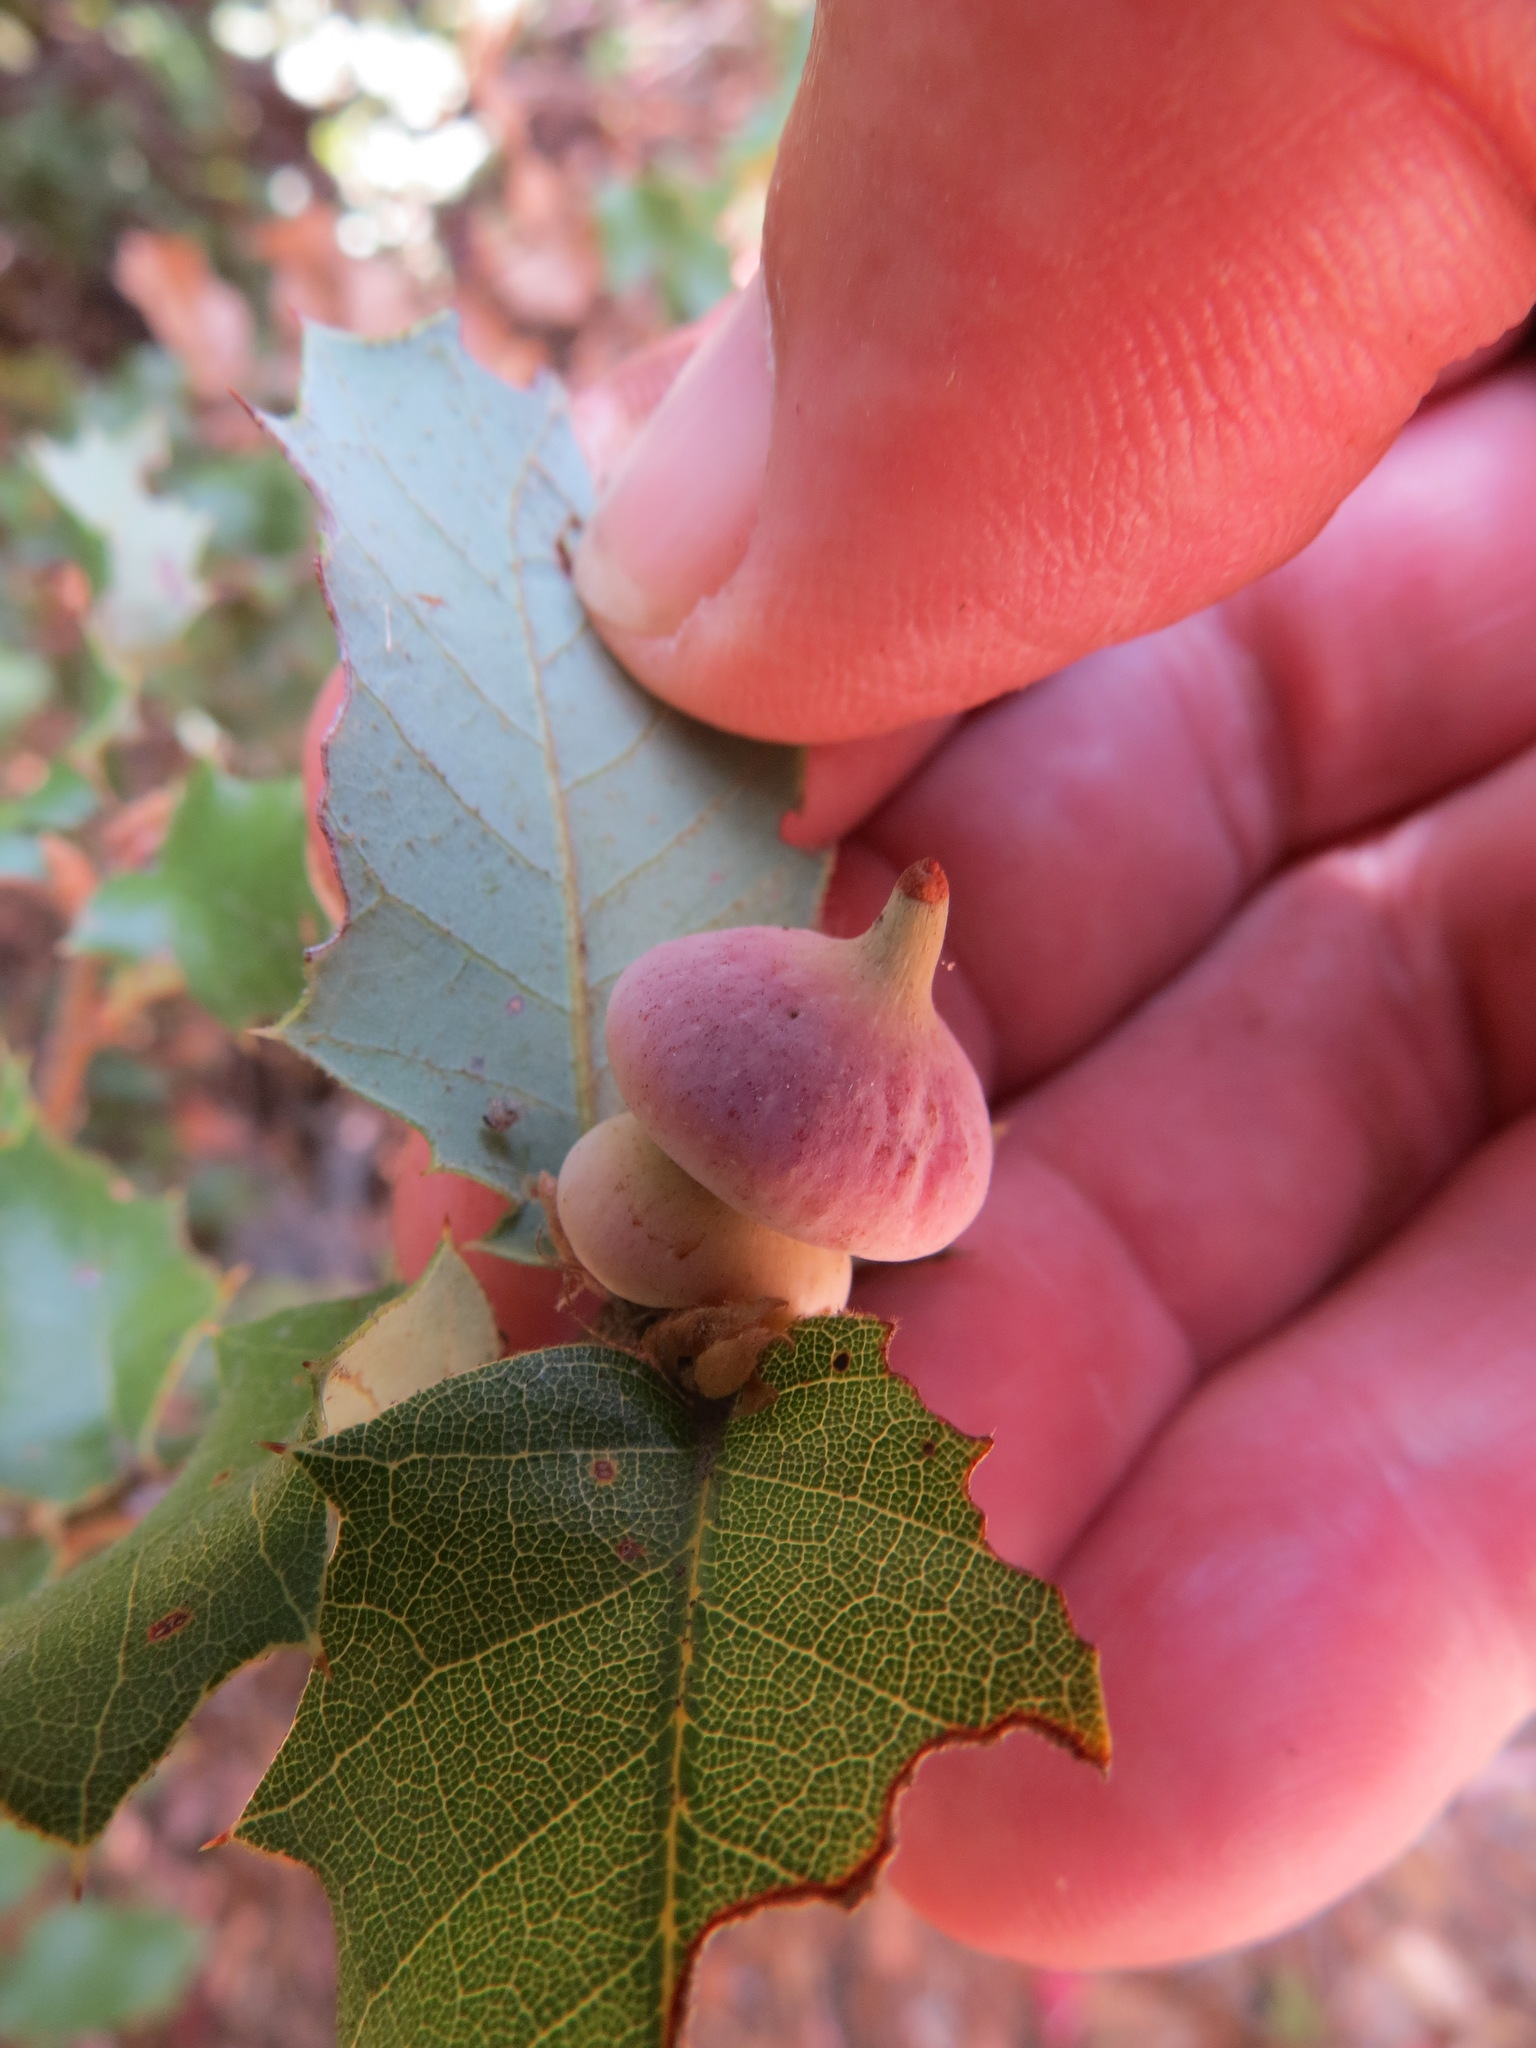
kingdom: Animalia
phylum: Arthropoda
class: Insecta
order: Hymenoptera
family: Cynipidae
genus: Heteroecus
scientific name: Heteroecus
